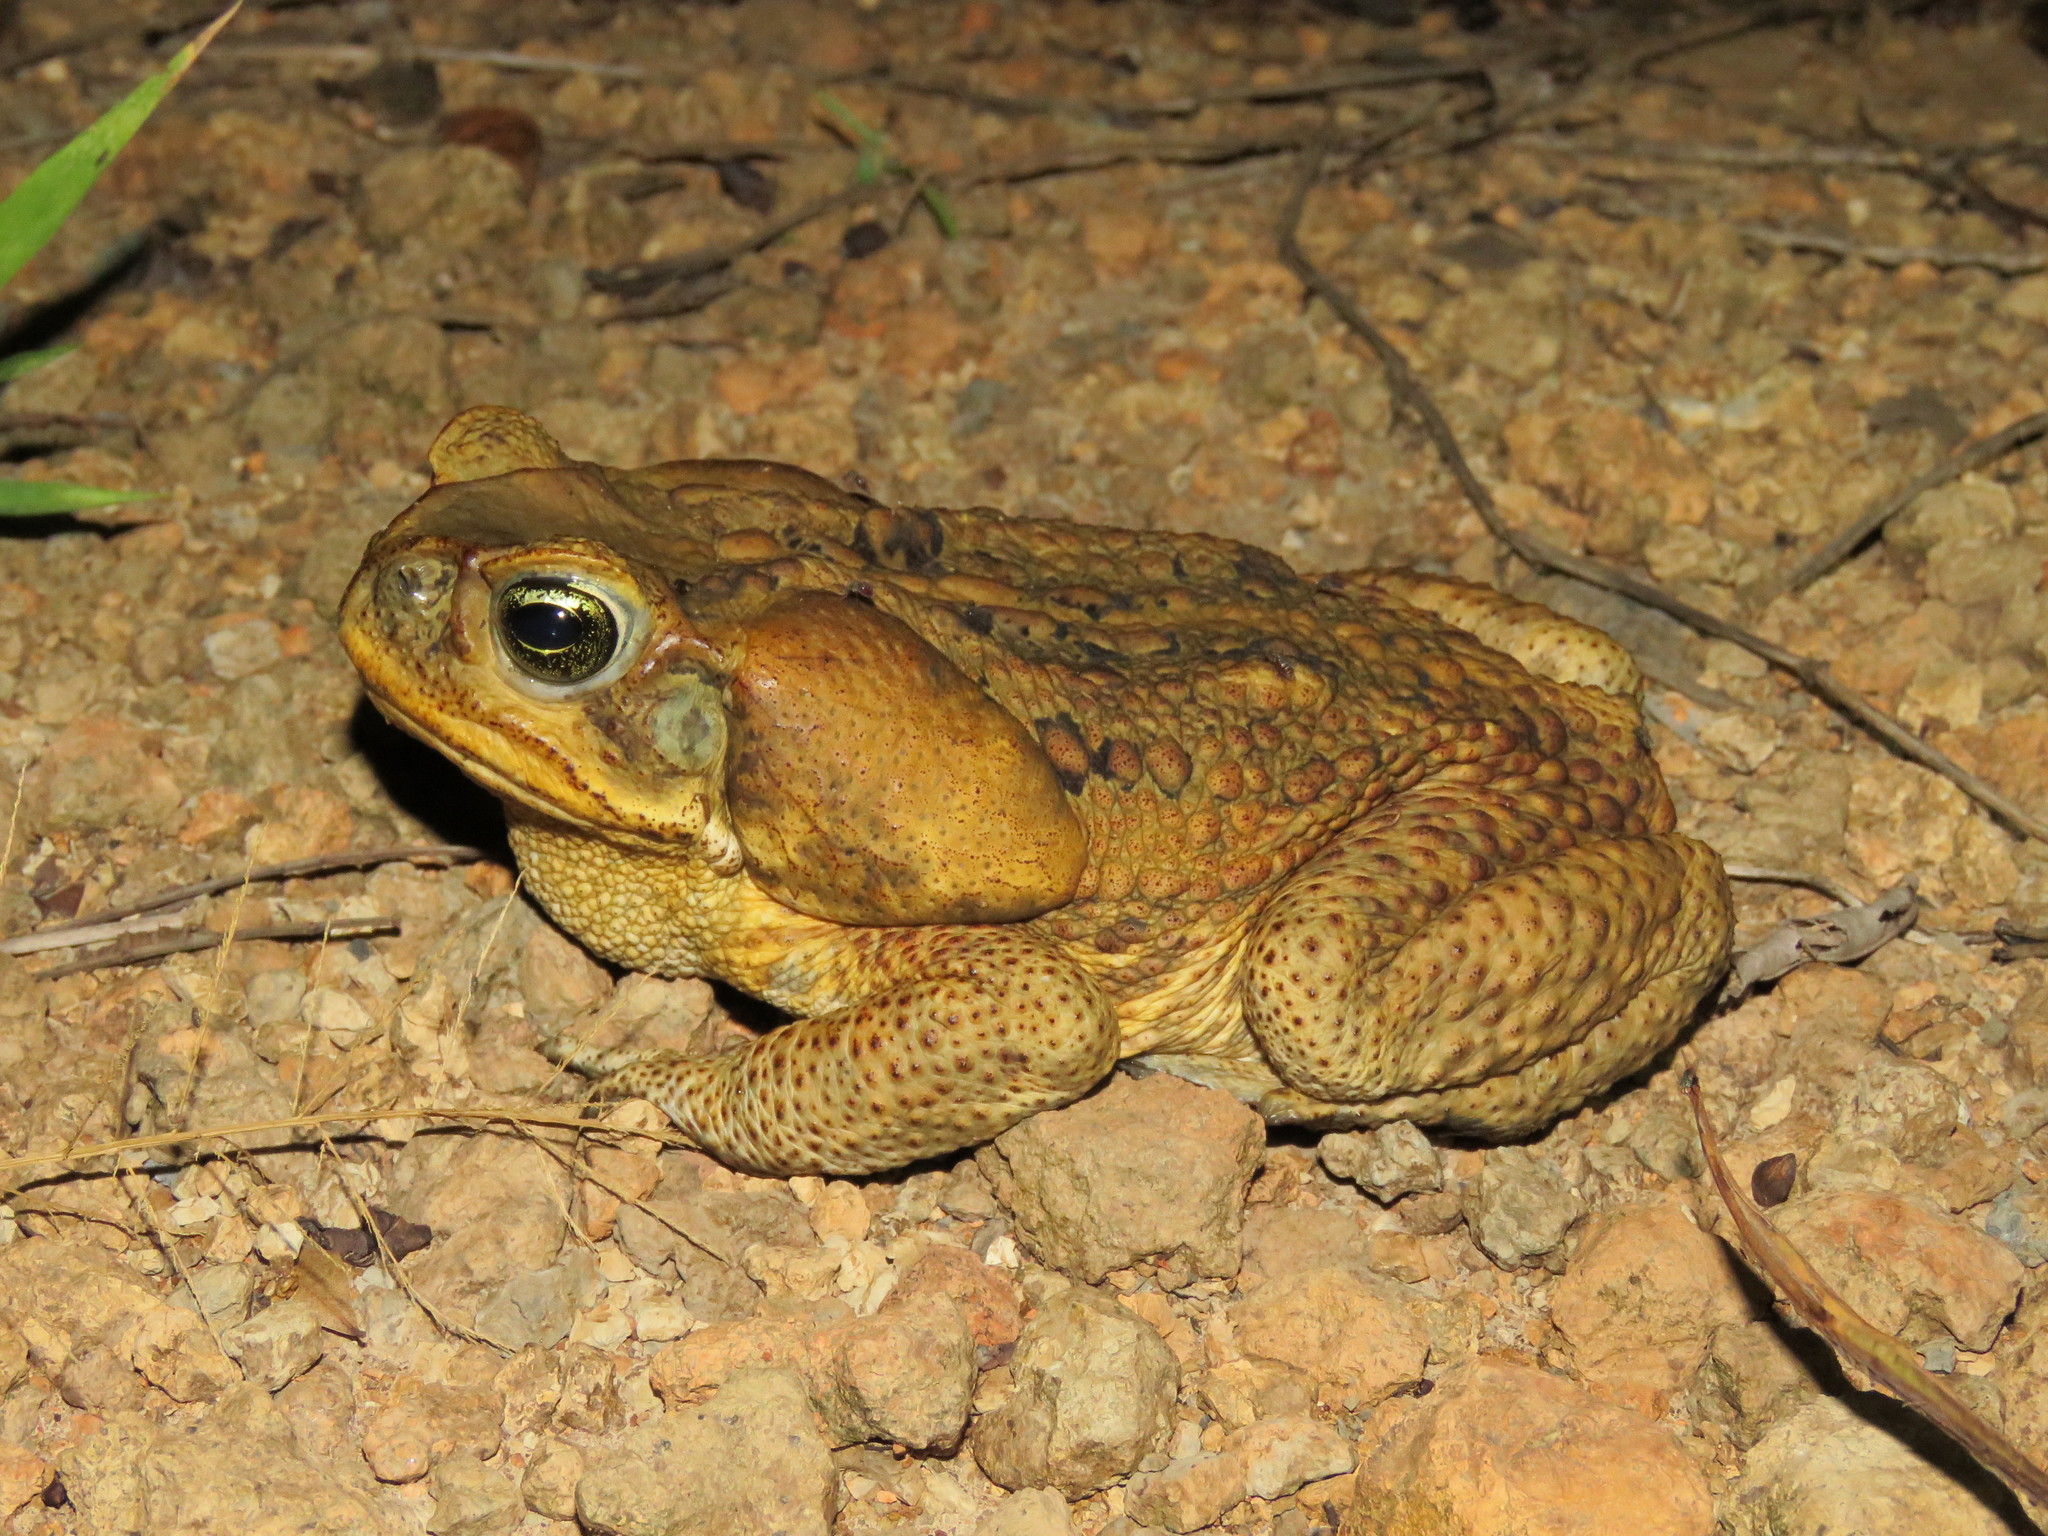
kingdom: Animalia
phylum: Chordata
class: Amphibia
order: Anura
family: Bufonidae
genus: Rhinella
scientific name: Rhinella marina
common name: Cane toad
